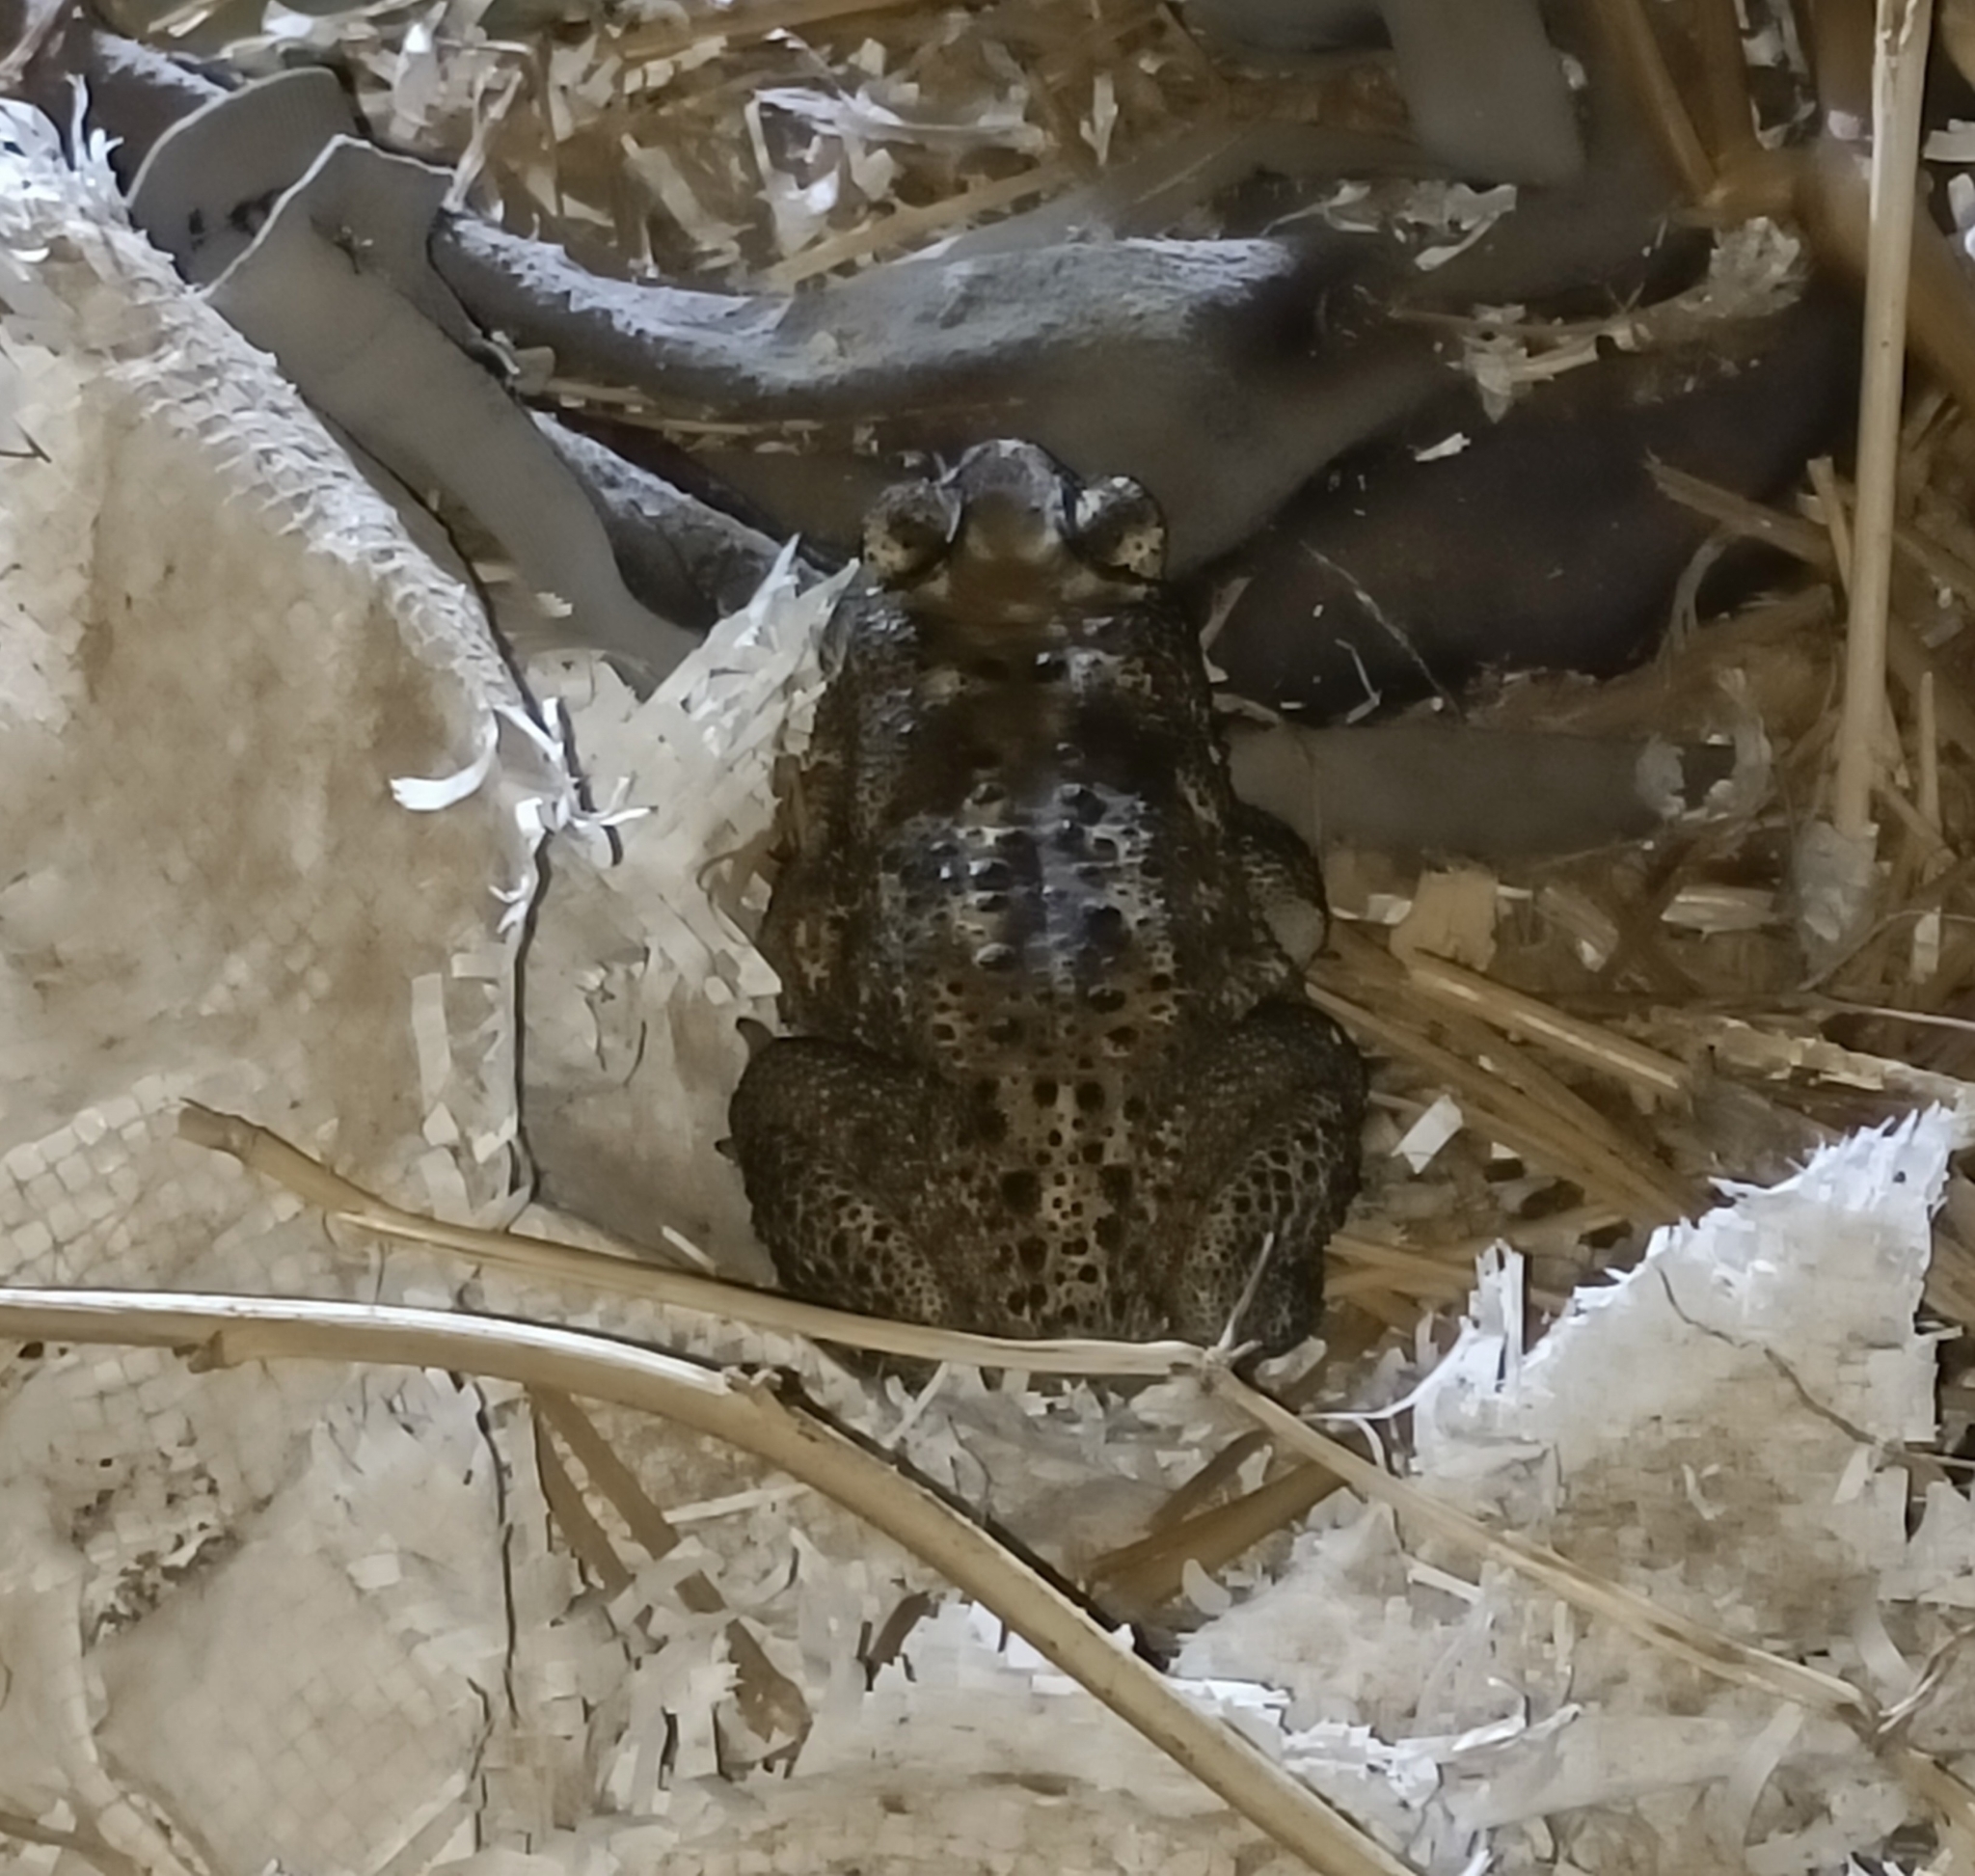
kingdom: Animalia
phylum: Chordata
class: Amphibia
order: Anura
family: Bufonidae
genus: Duttaphrynus
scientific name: Duttaphrynus melanostictus
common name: Common sunda toad
